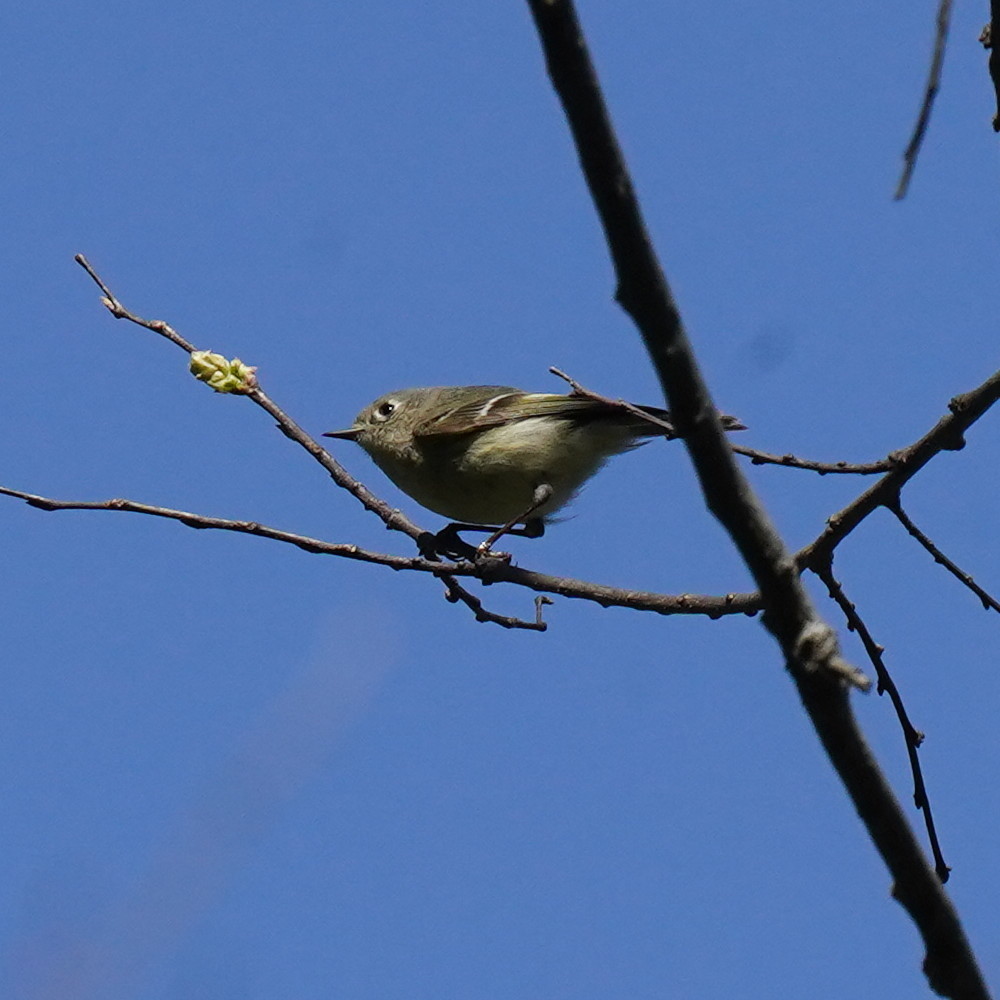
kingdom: Animalia
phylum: Chordata
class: Aves
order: Passeriformes
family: Regulidae
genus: Regulus
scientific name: Regulus calendula
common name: Ruby-crowned kinglet
